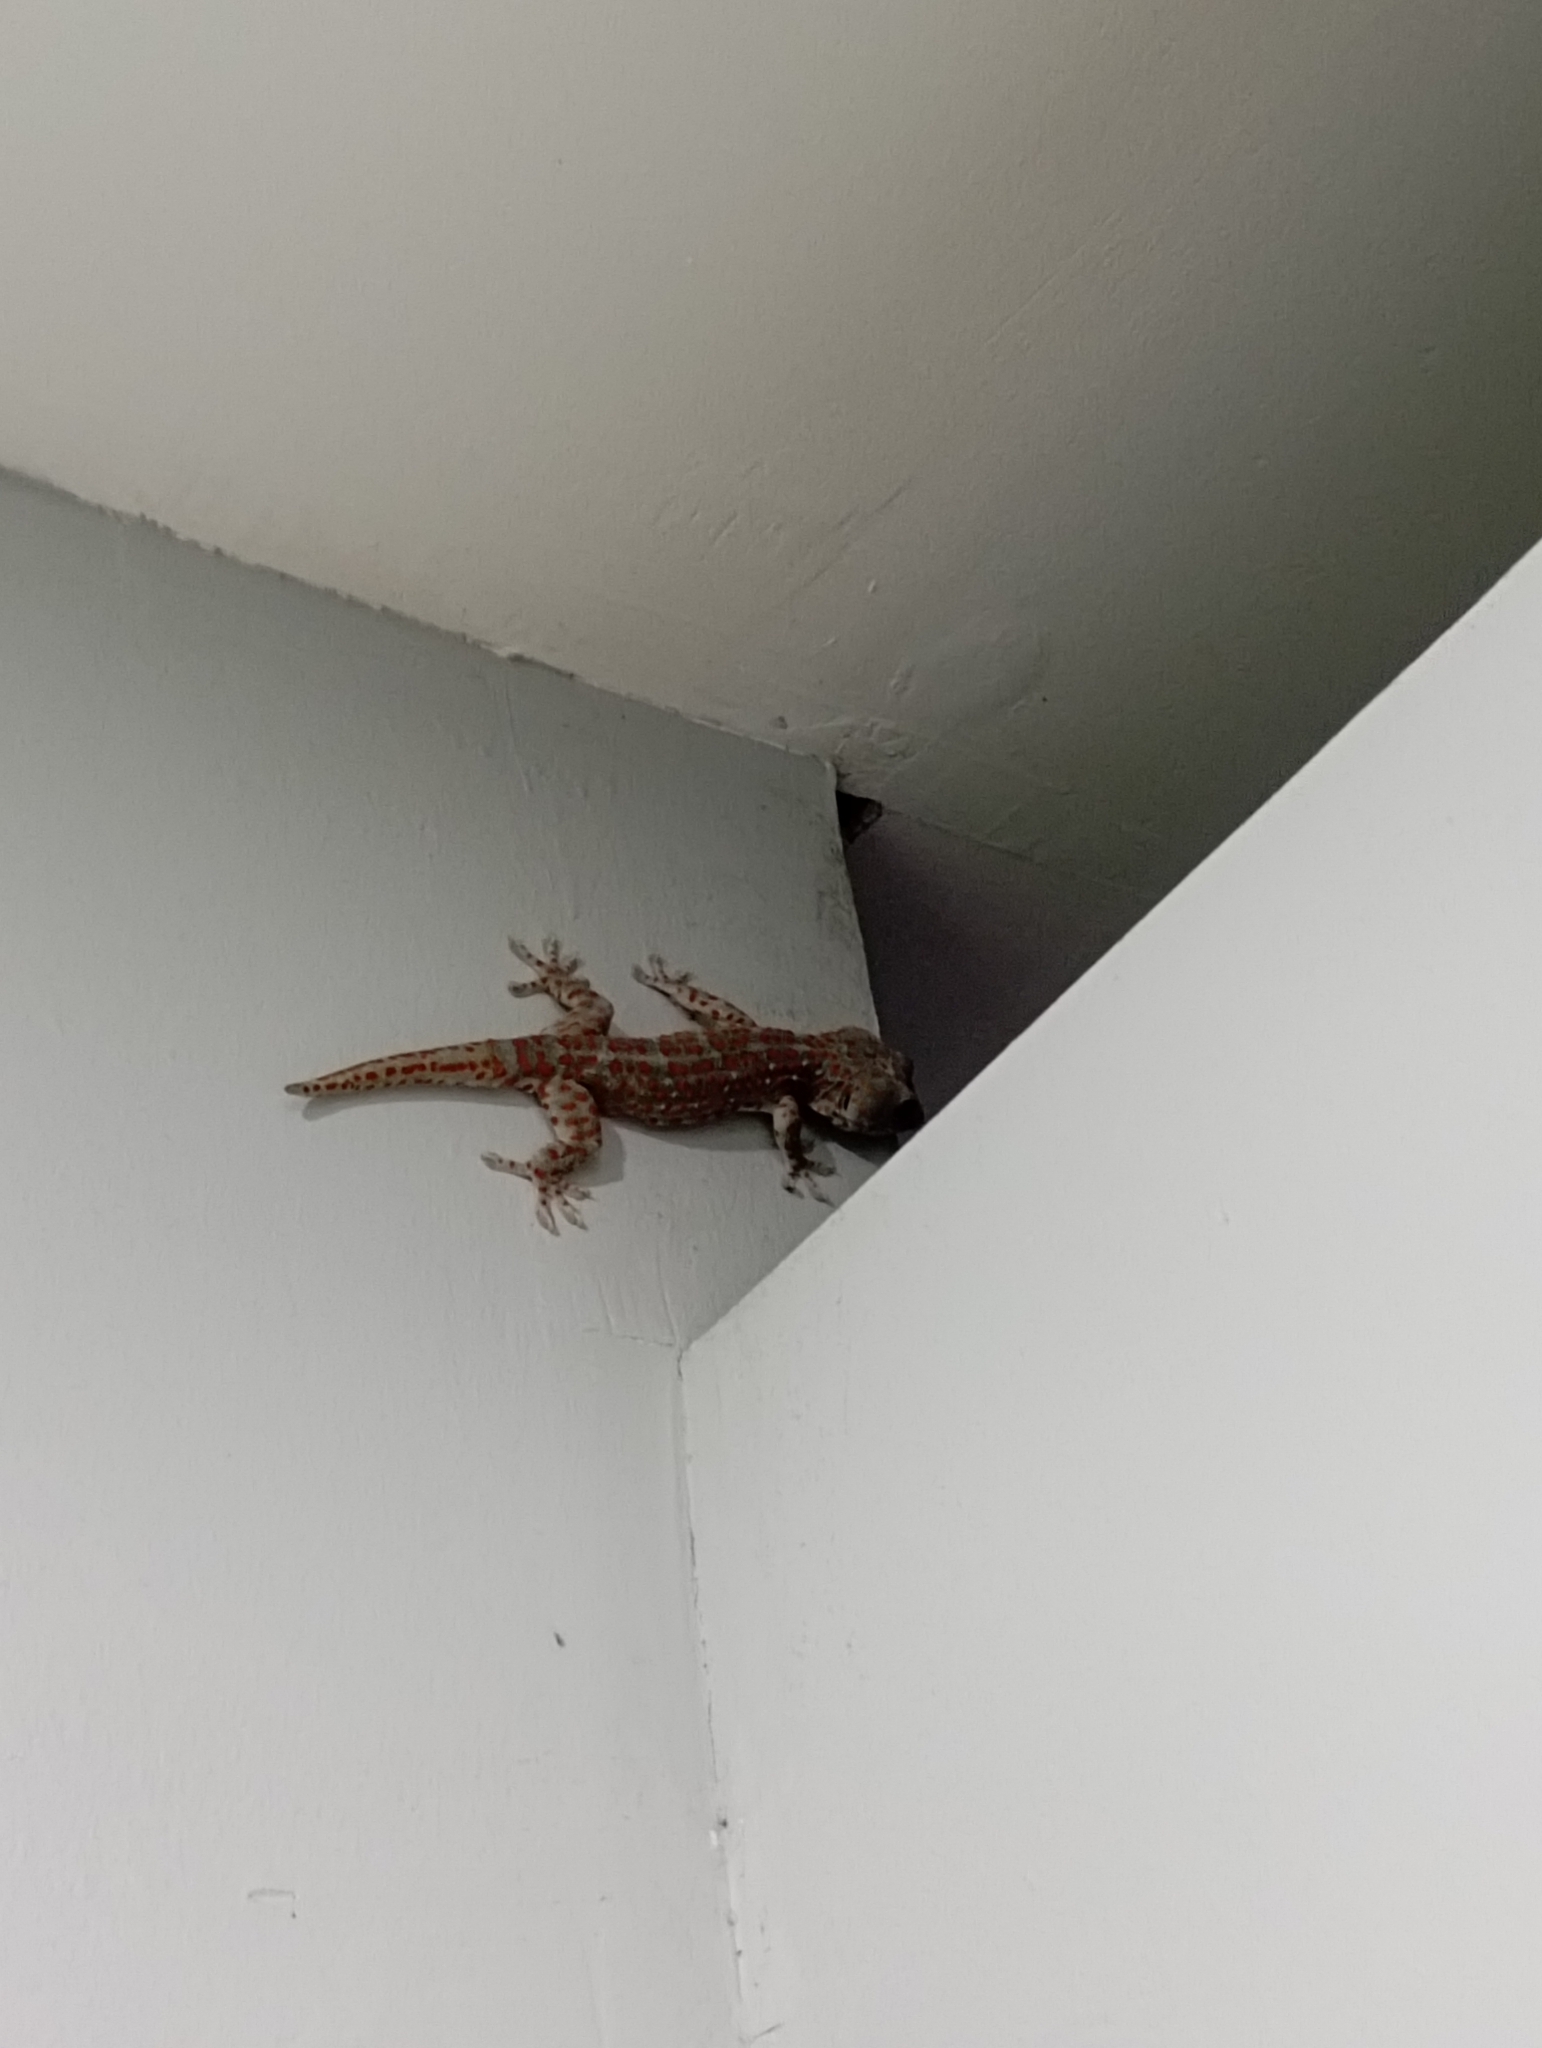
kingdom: Animalia
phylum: Chordata
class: Squamata
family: Gekkonidae
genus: Gekko
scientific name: Gekko gecko
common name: Tokay gecko
